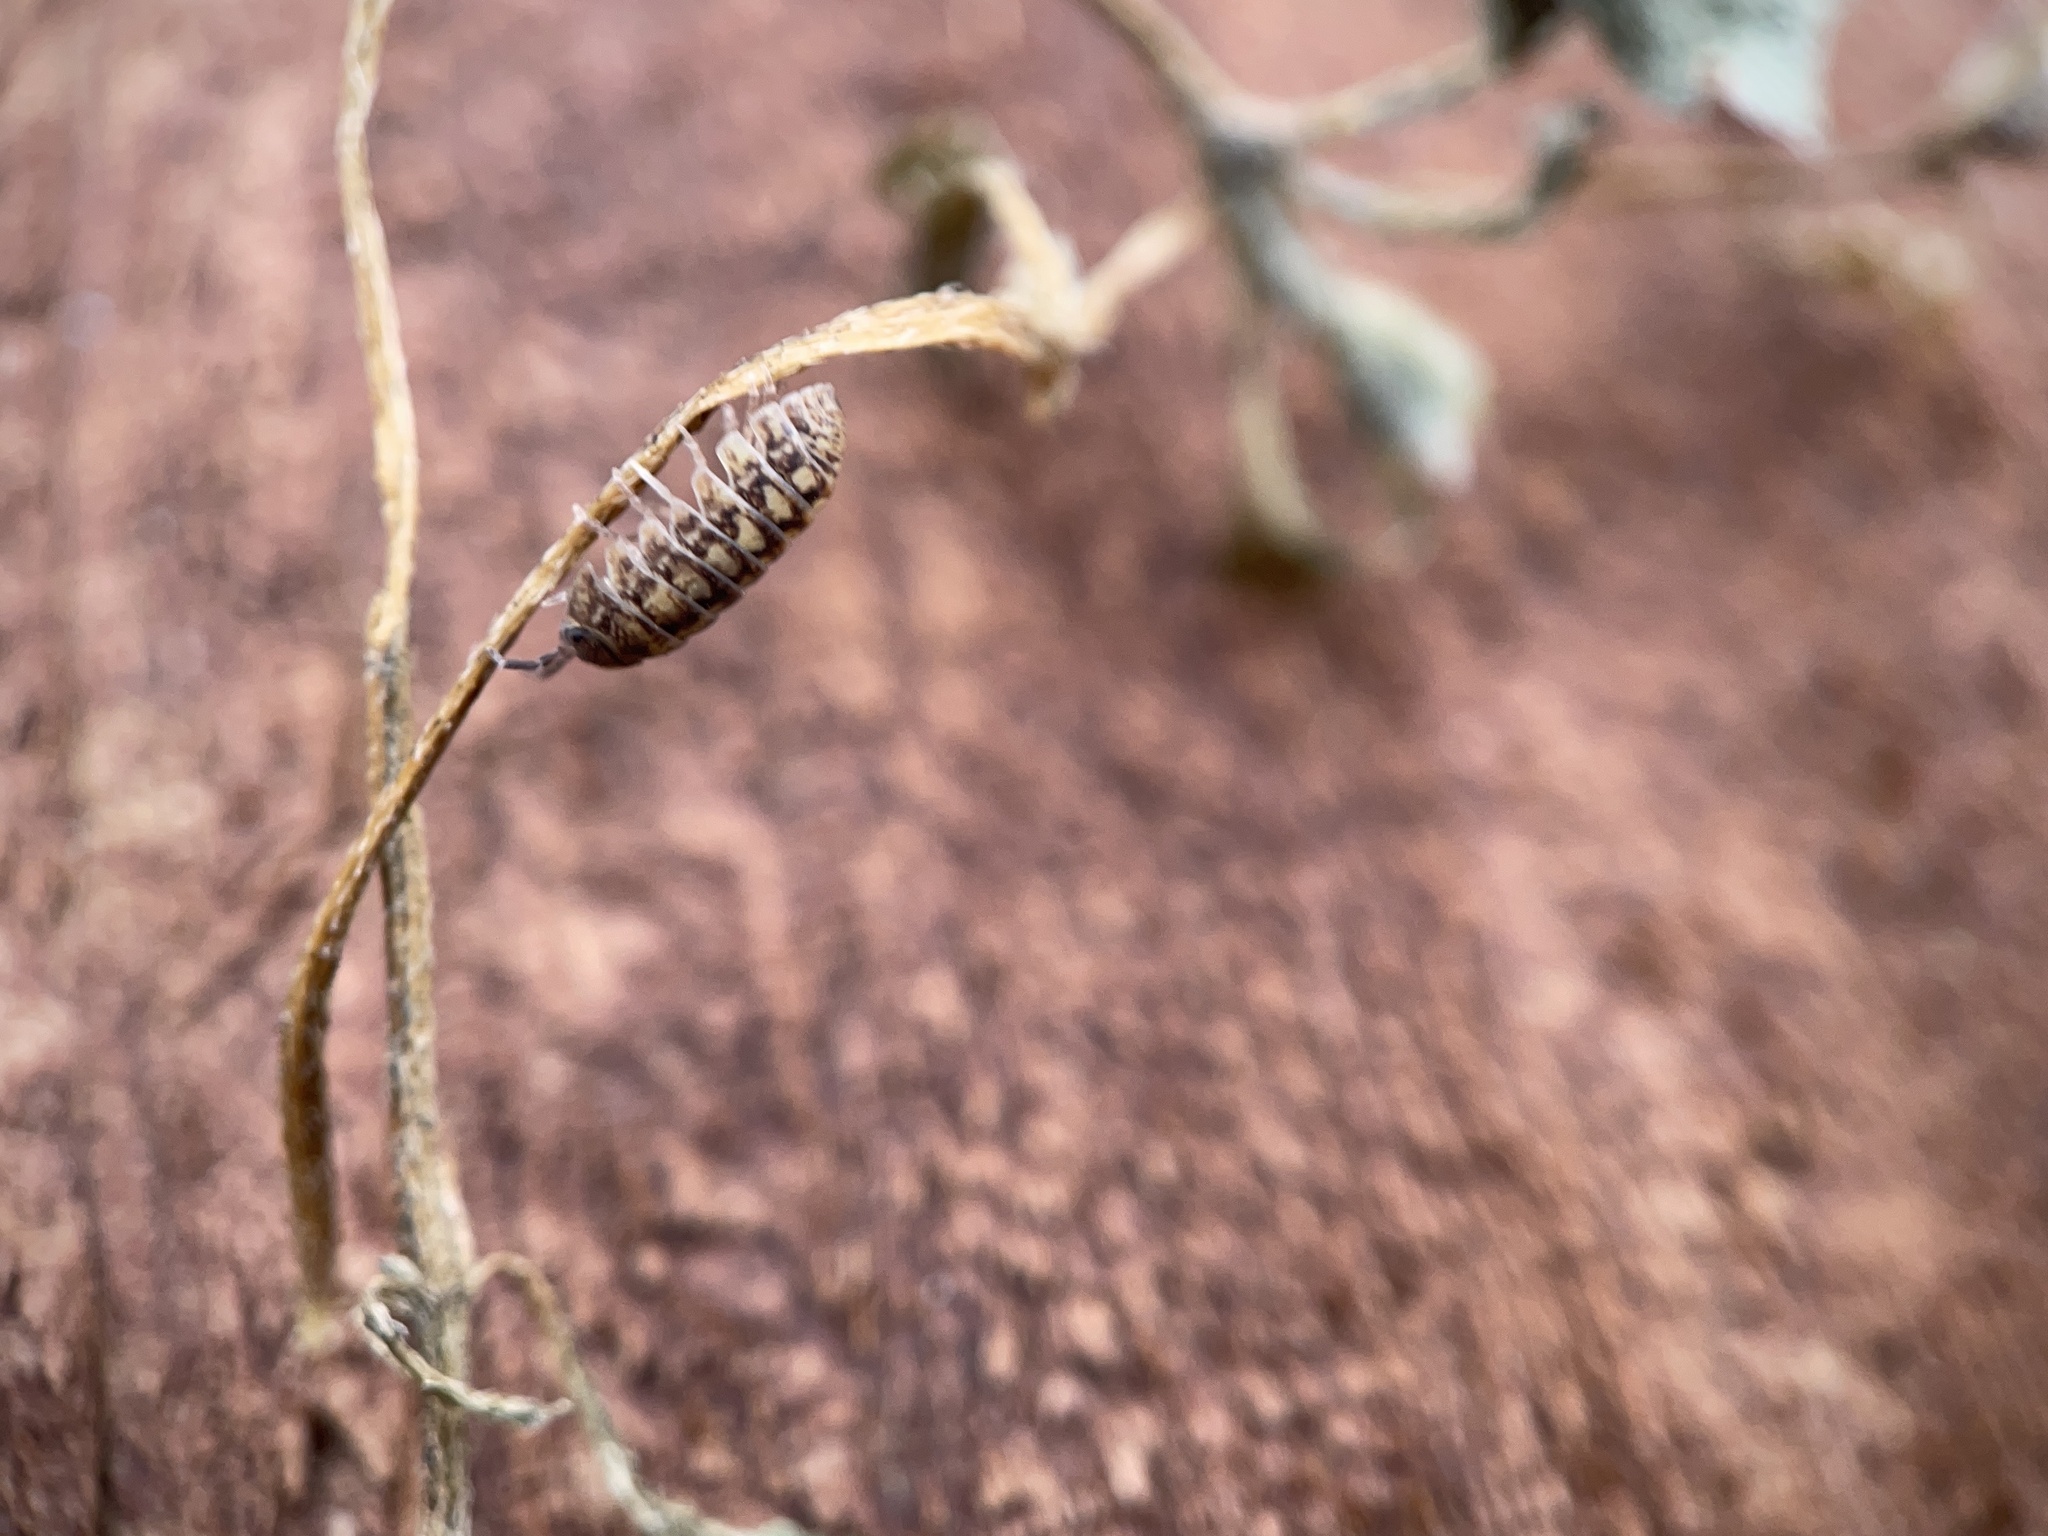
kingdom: Animalia
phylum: Arthropoda
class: Malacostraca
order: Isopoda
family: Armadillidiidae
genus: Armadillidium
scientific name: Armadillidium vulgare
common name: Common pill woodlouse
